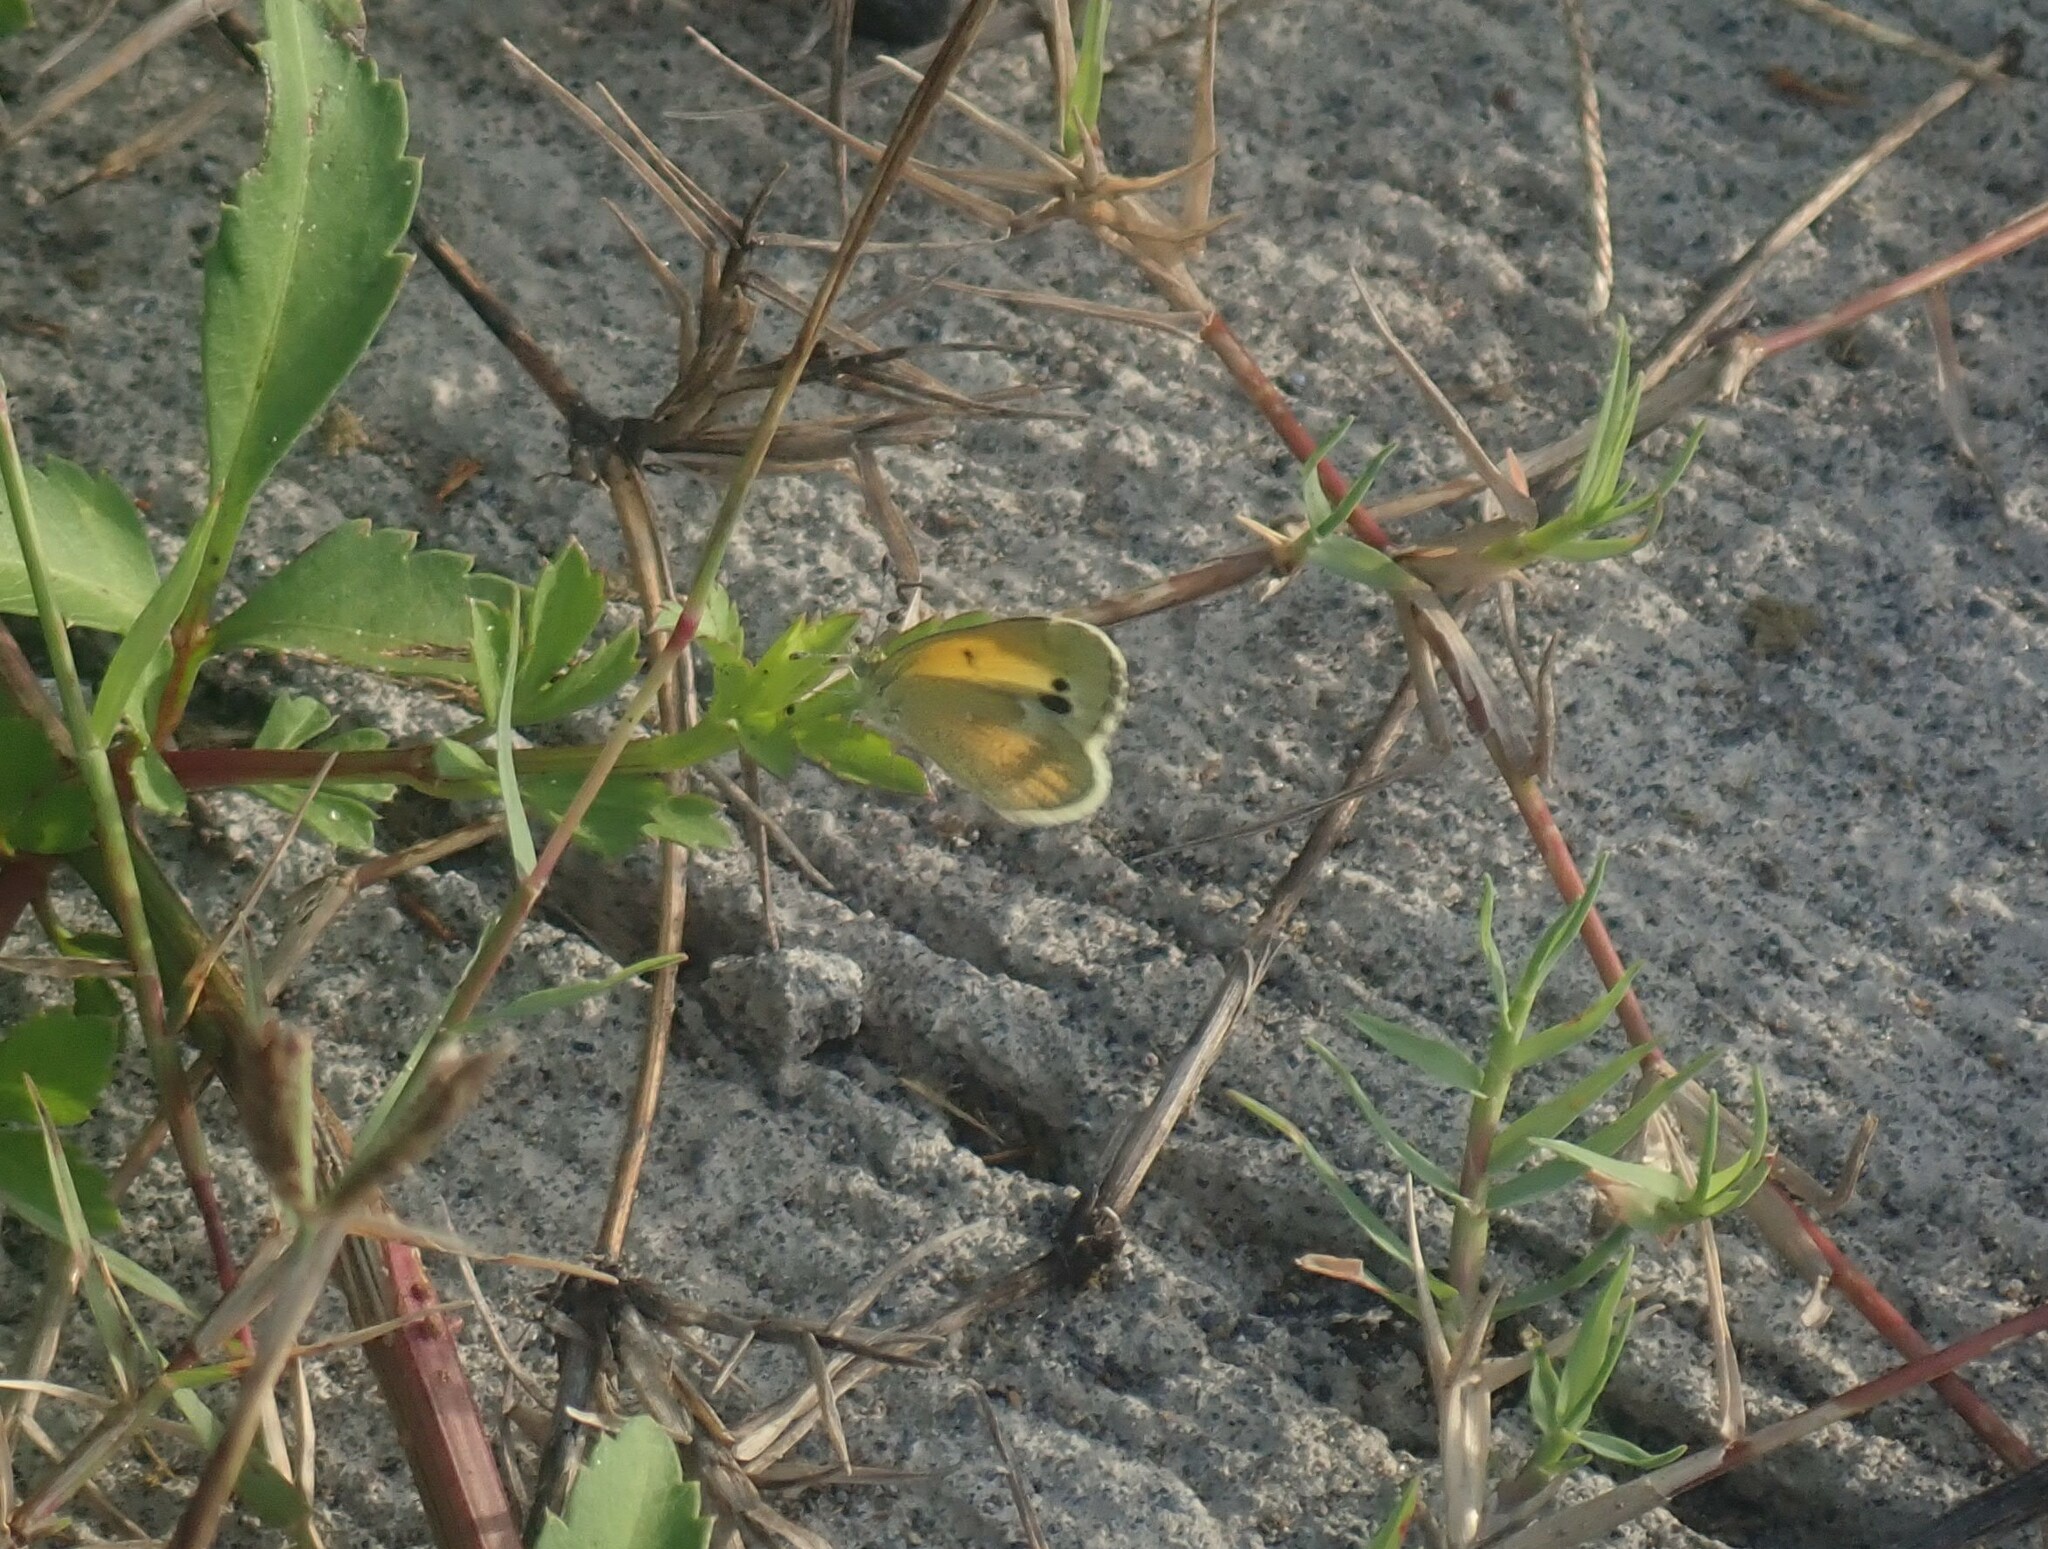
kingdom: Animalia
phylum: Arthropoda
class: Insecta
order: Lepidoptera
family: Pieridae
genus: Nathalis
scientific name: Nathalis iole
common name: Dainty sulphur
